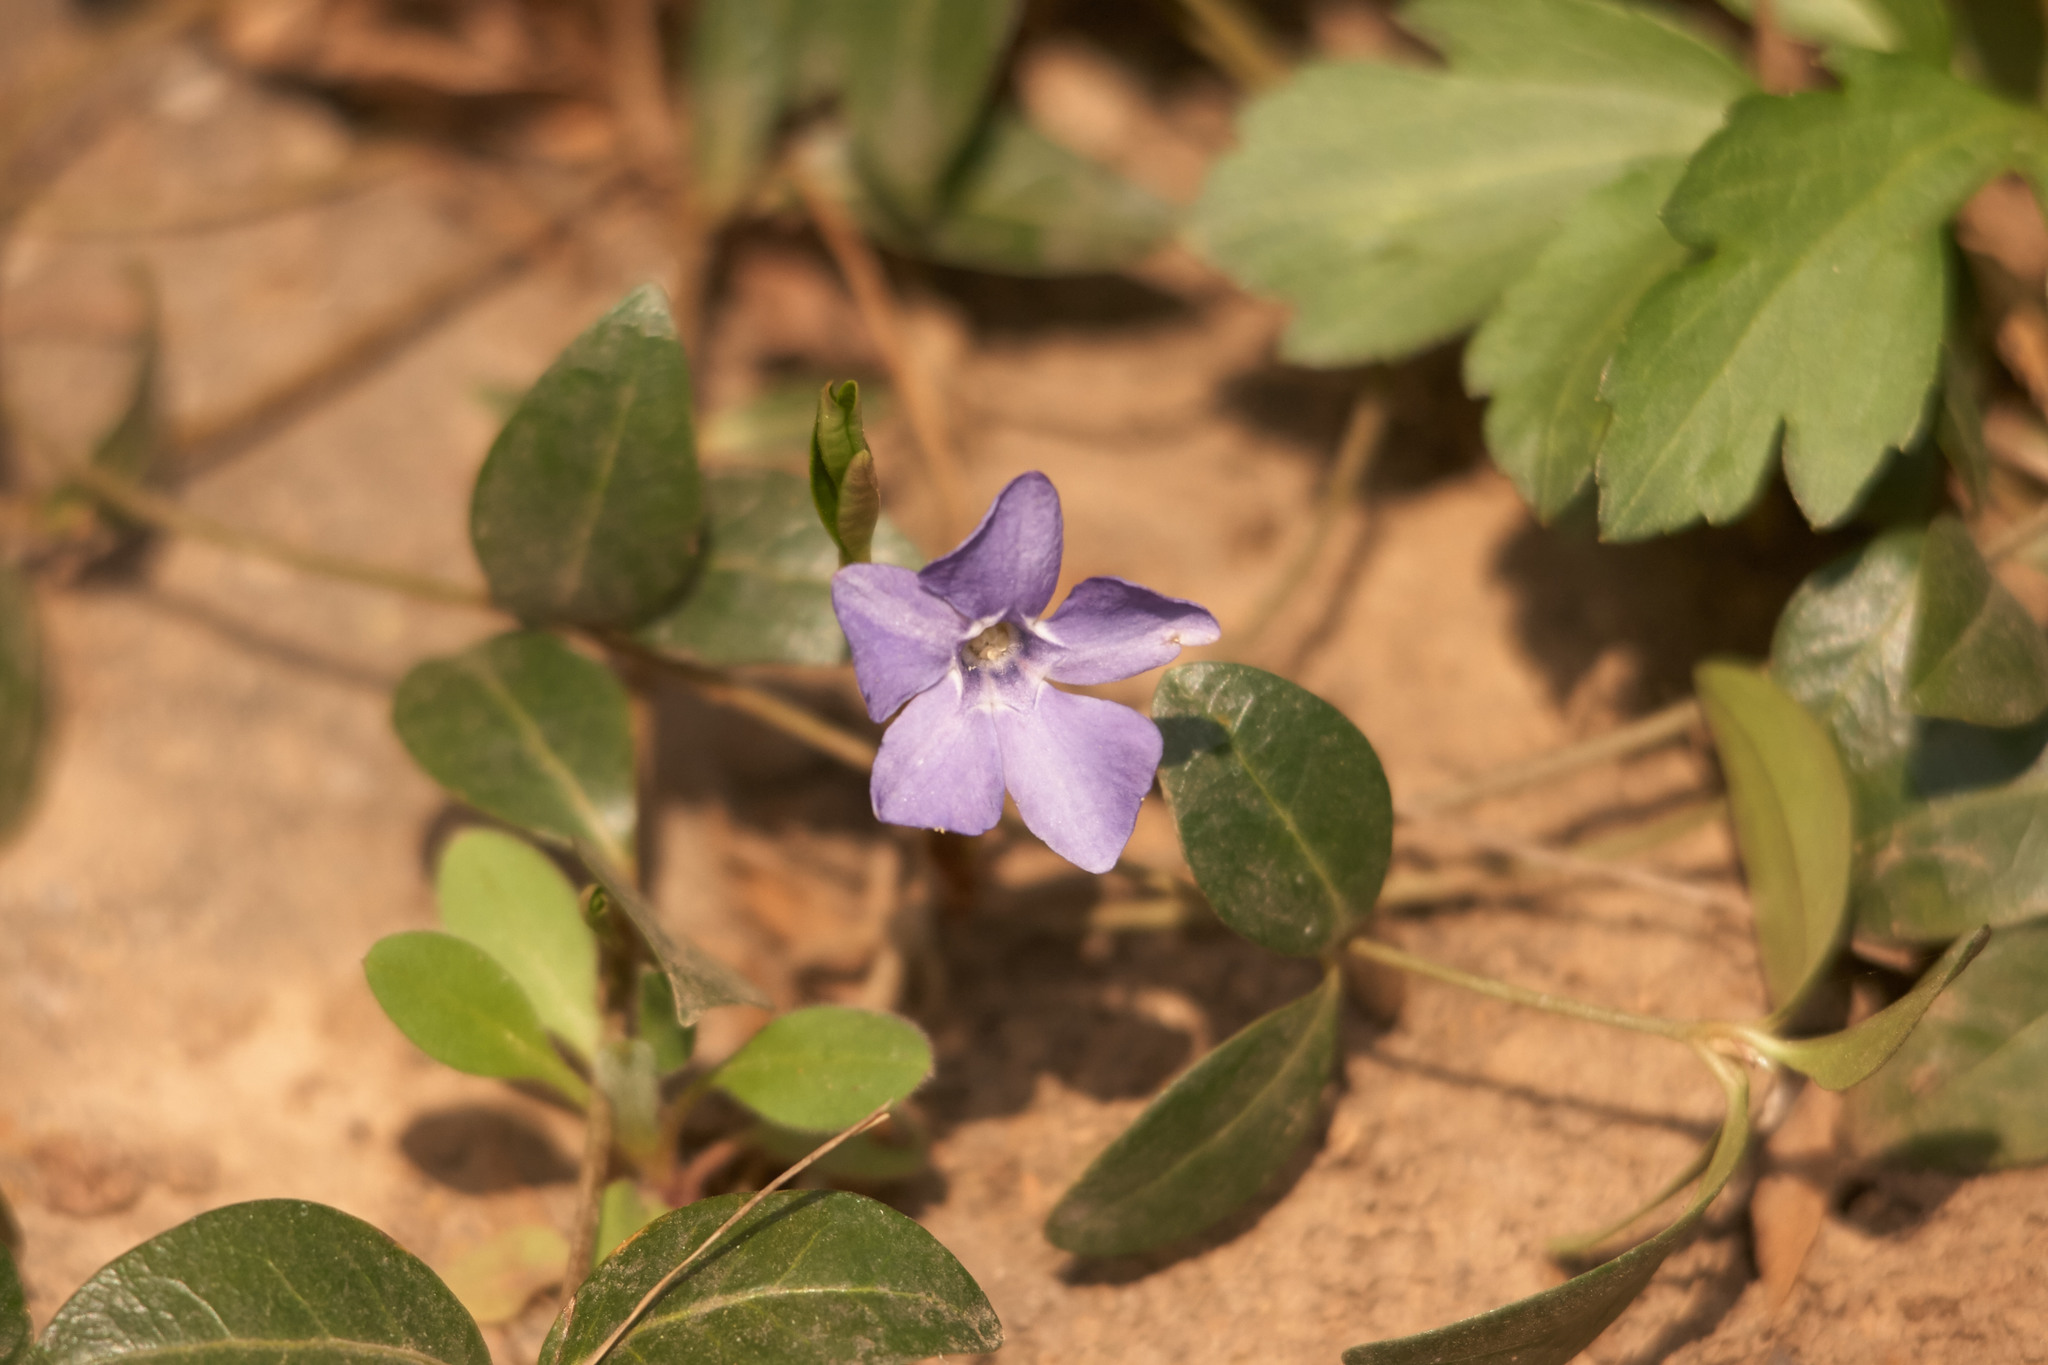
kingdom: Plantae
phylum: Tracheophyta
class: Magnoliopsida
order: Gentianales
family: Apocynaceae
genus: Vinca
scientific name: Vinca minor
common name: Lesser periwinkle
